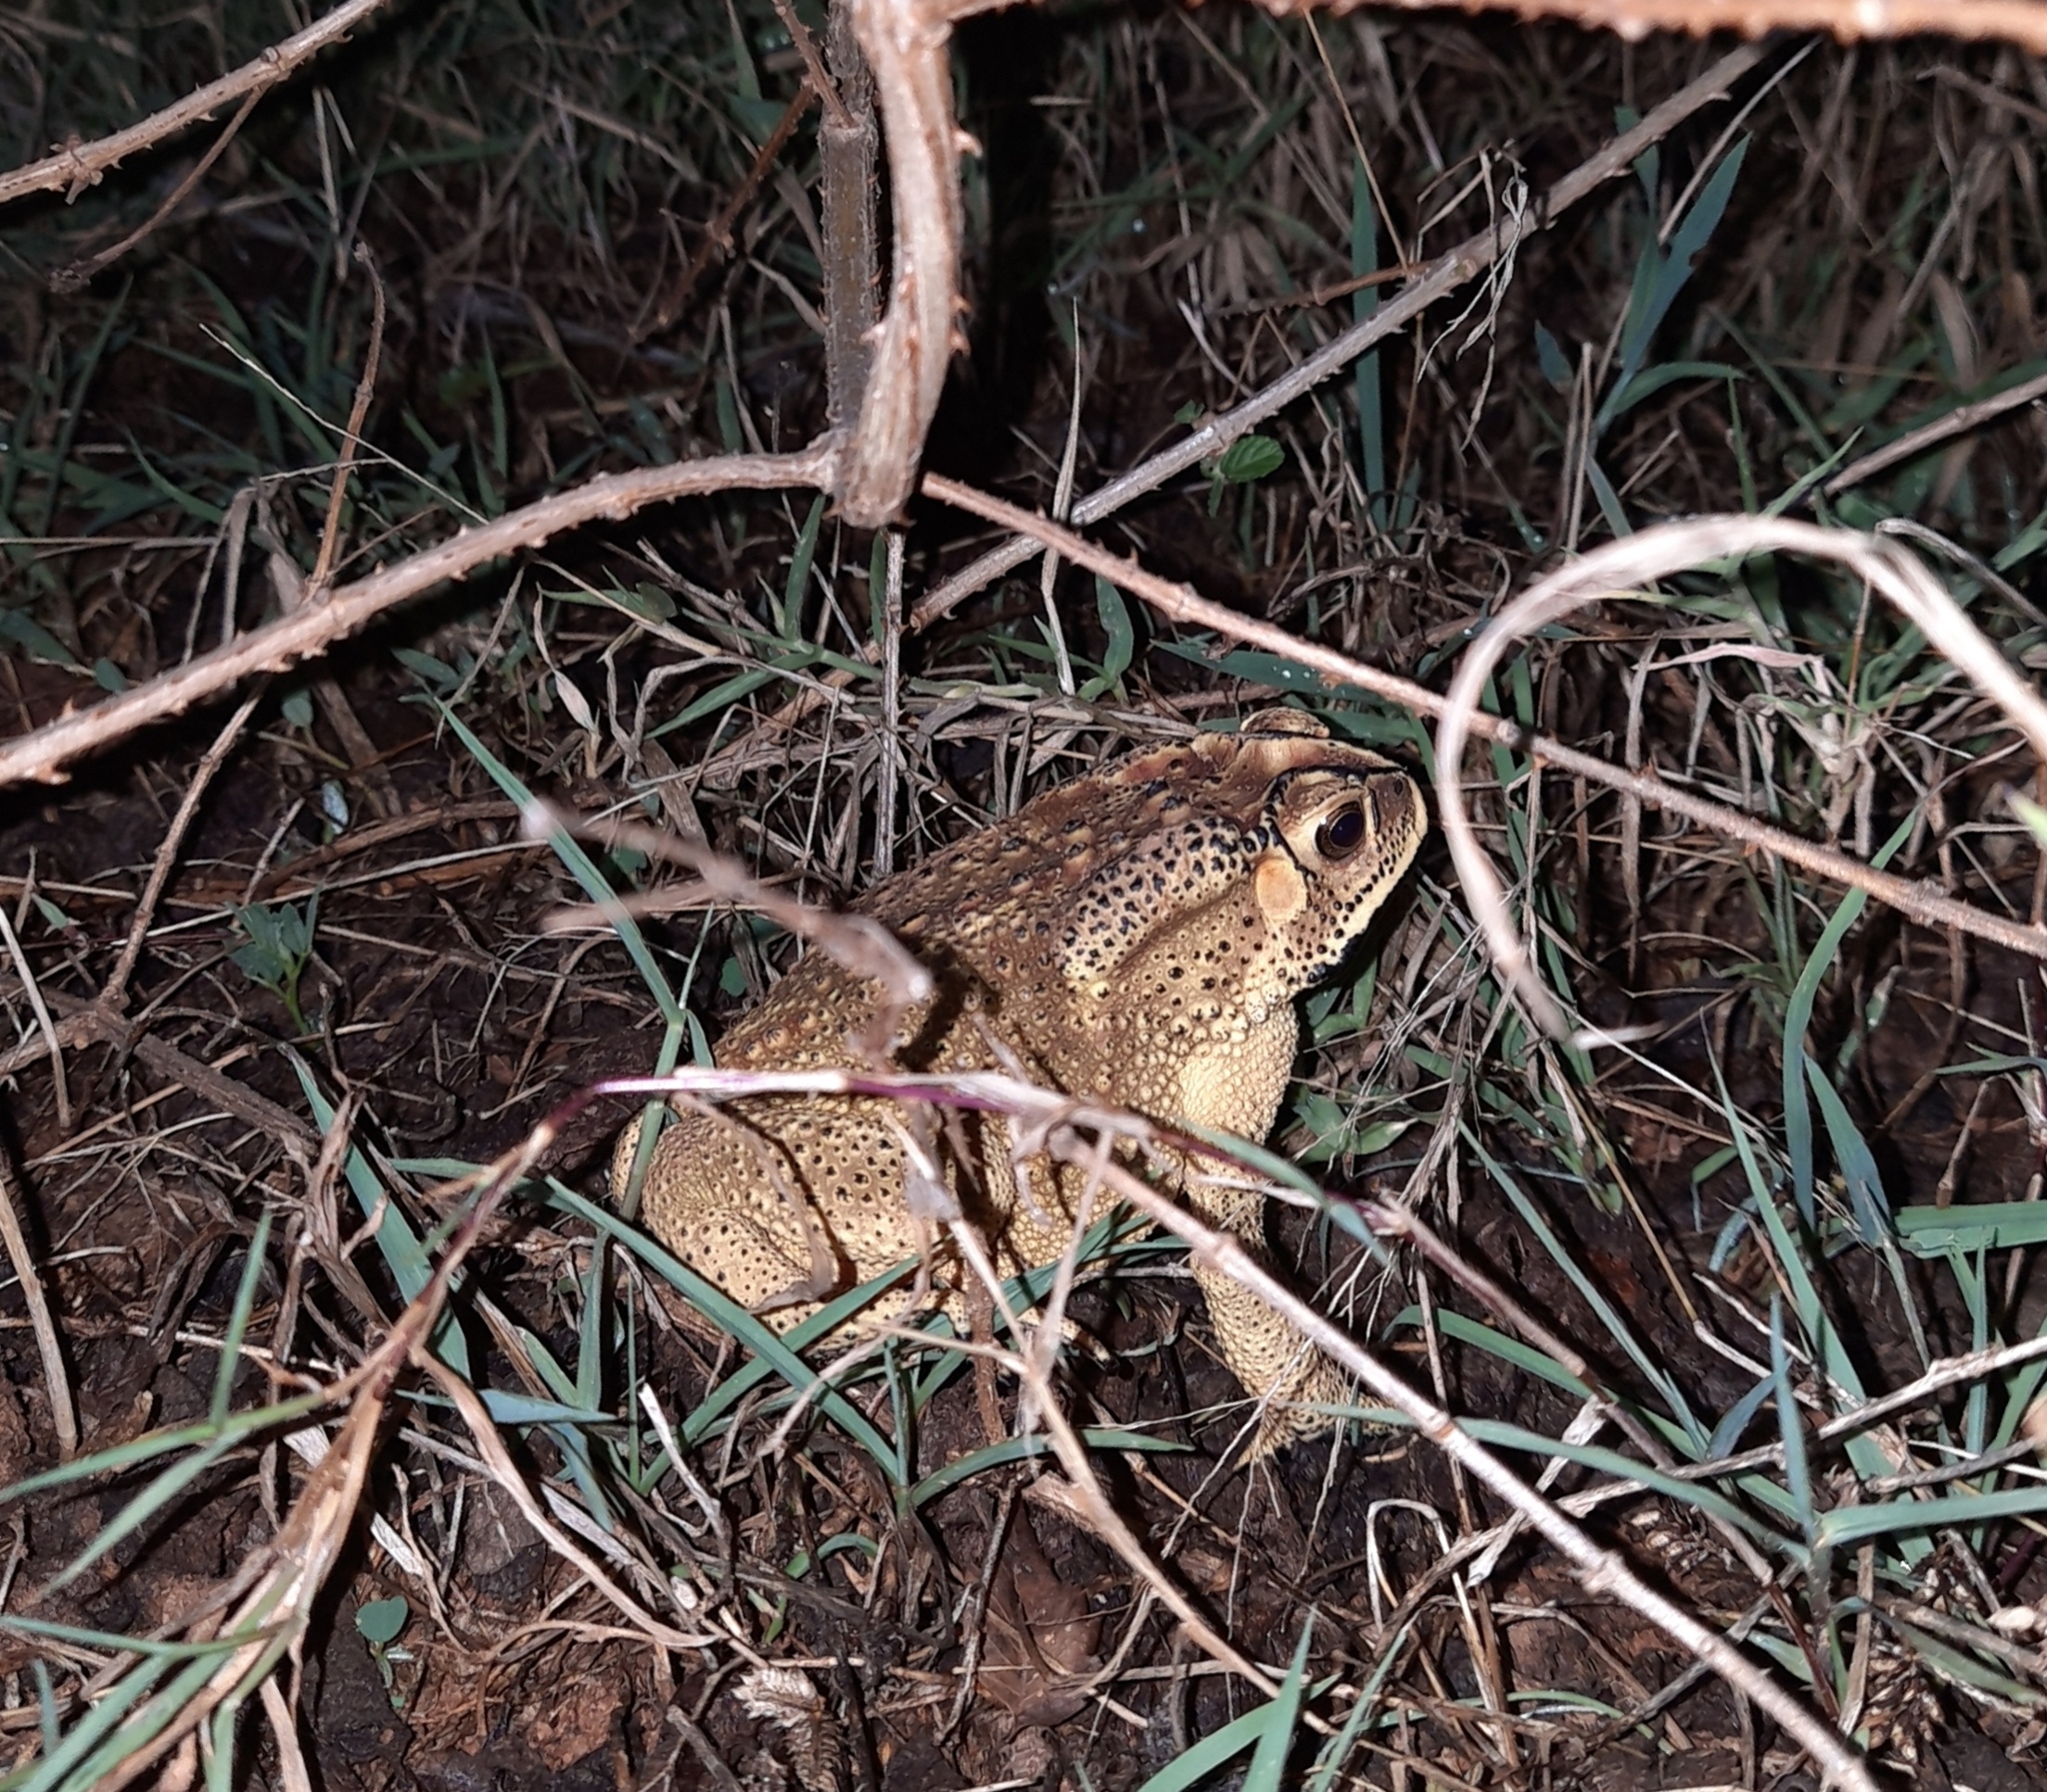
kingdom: Animalia
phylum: Chordata
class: Amphibia
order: Anura
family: Bufonidae
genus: Duttaphrynus
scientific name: Duttaphrynus melanostictus
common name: Common sunda toad
